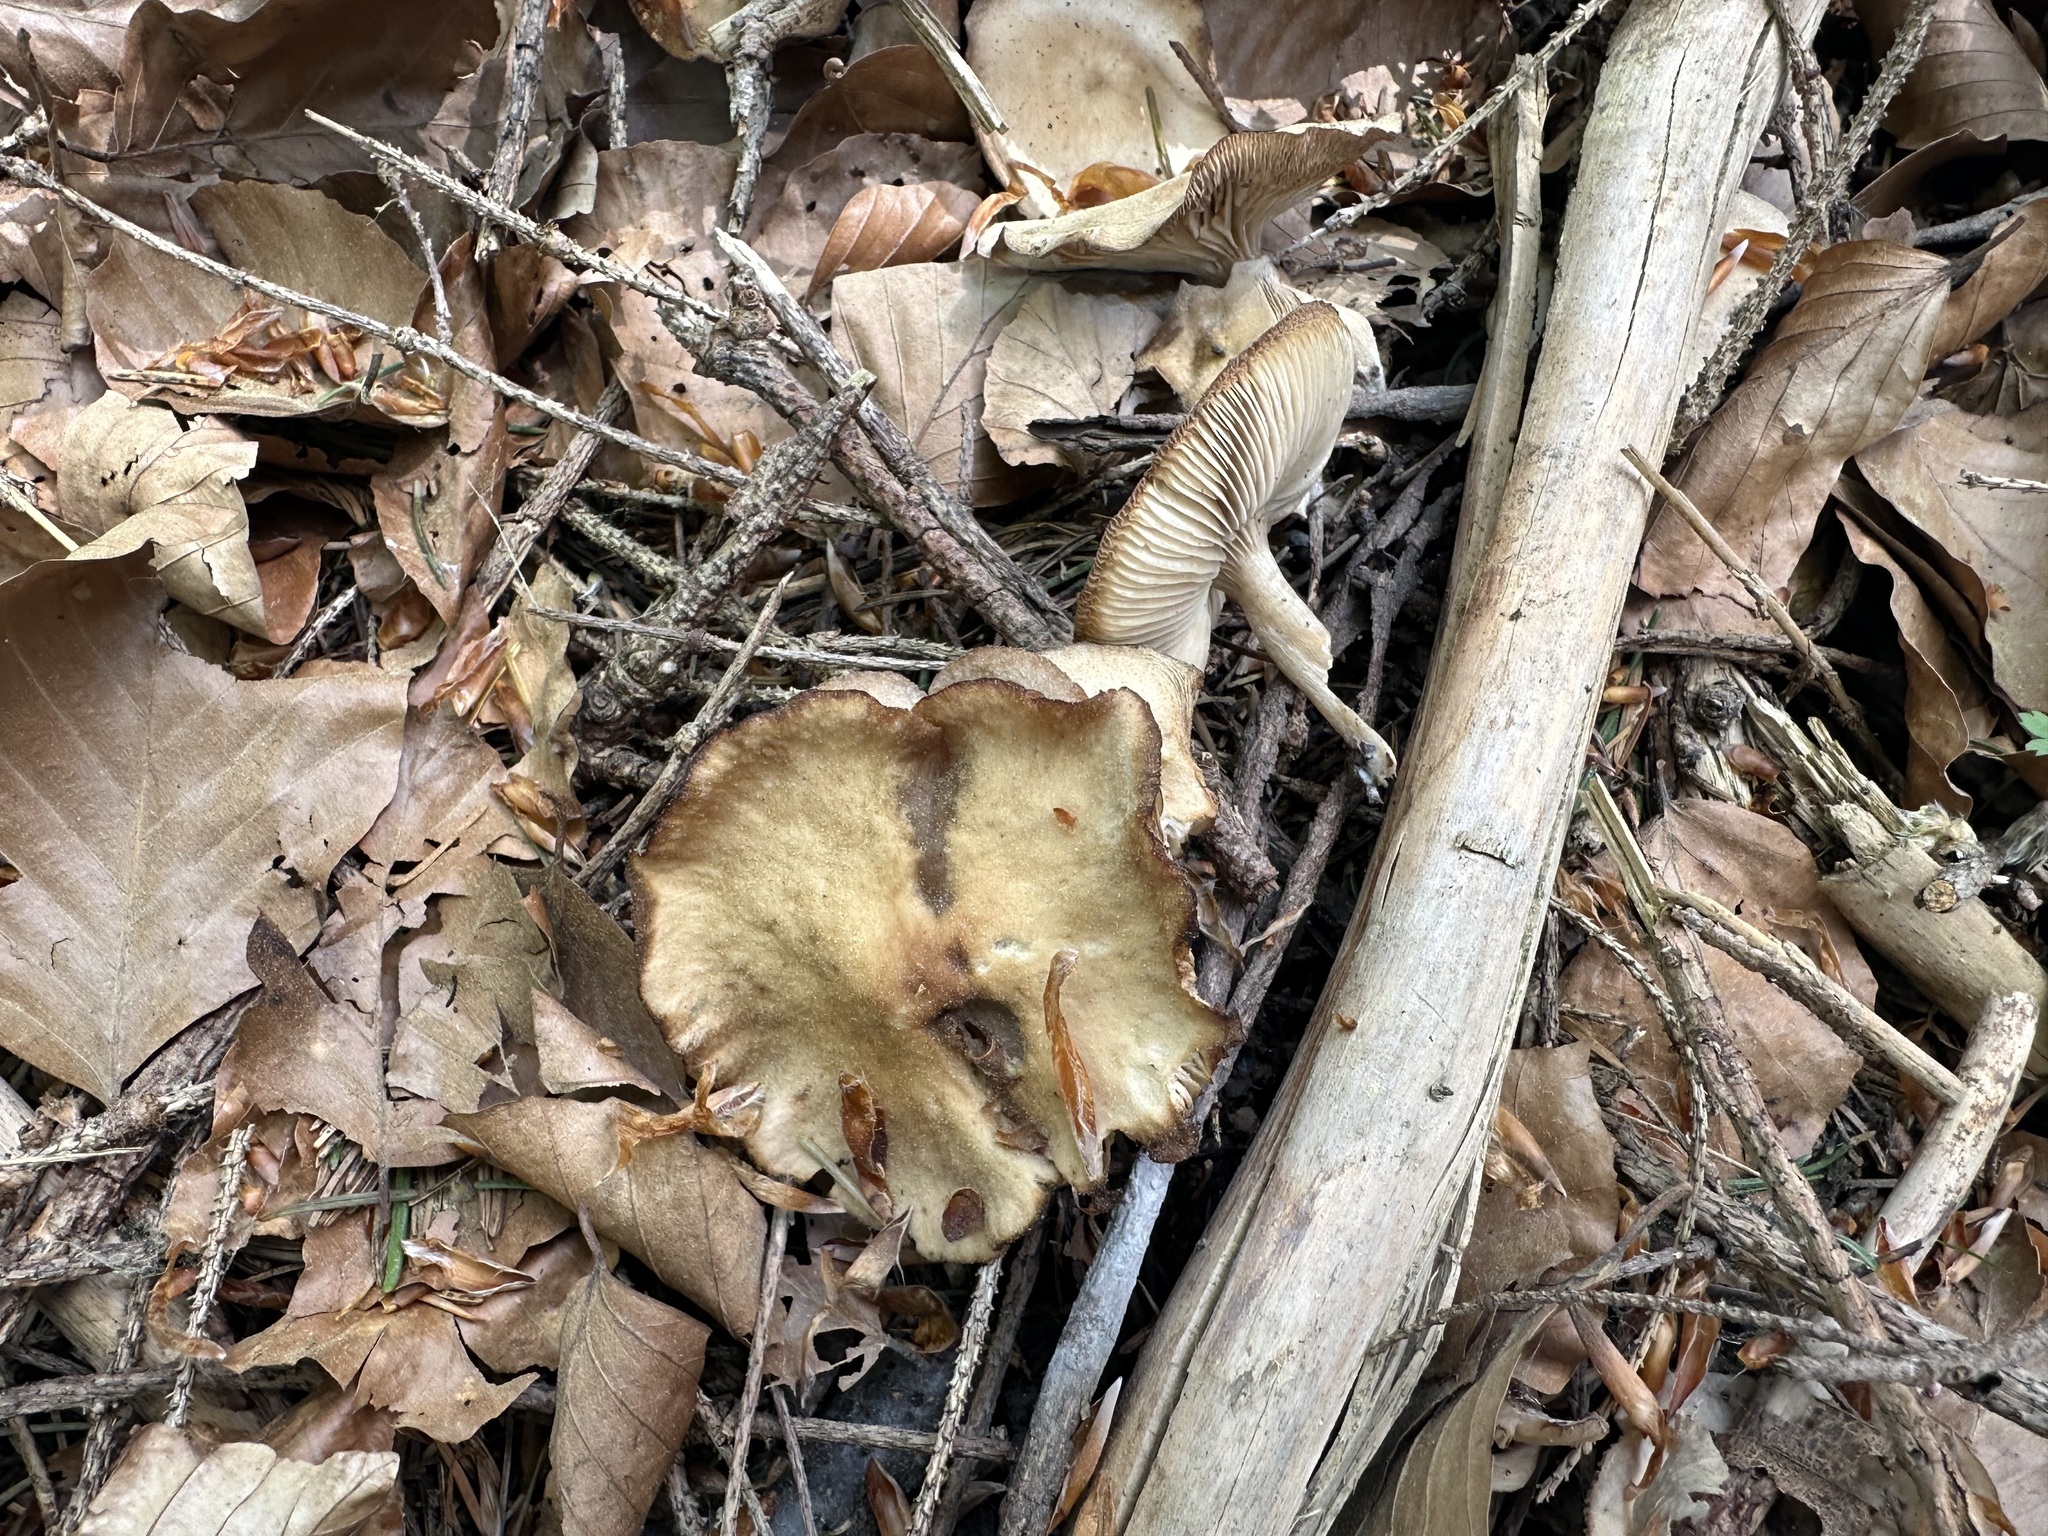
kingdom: Fungi
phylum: Basidiomycota
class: Agaricomycetes
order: Agaricales
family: Tricholomataceae
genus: Clitocybe
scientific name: Clitocybe fragrans
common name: Fragrant funnel
